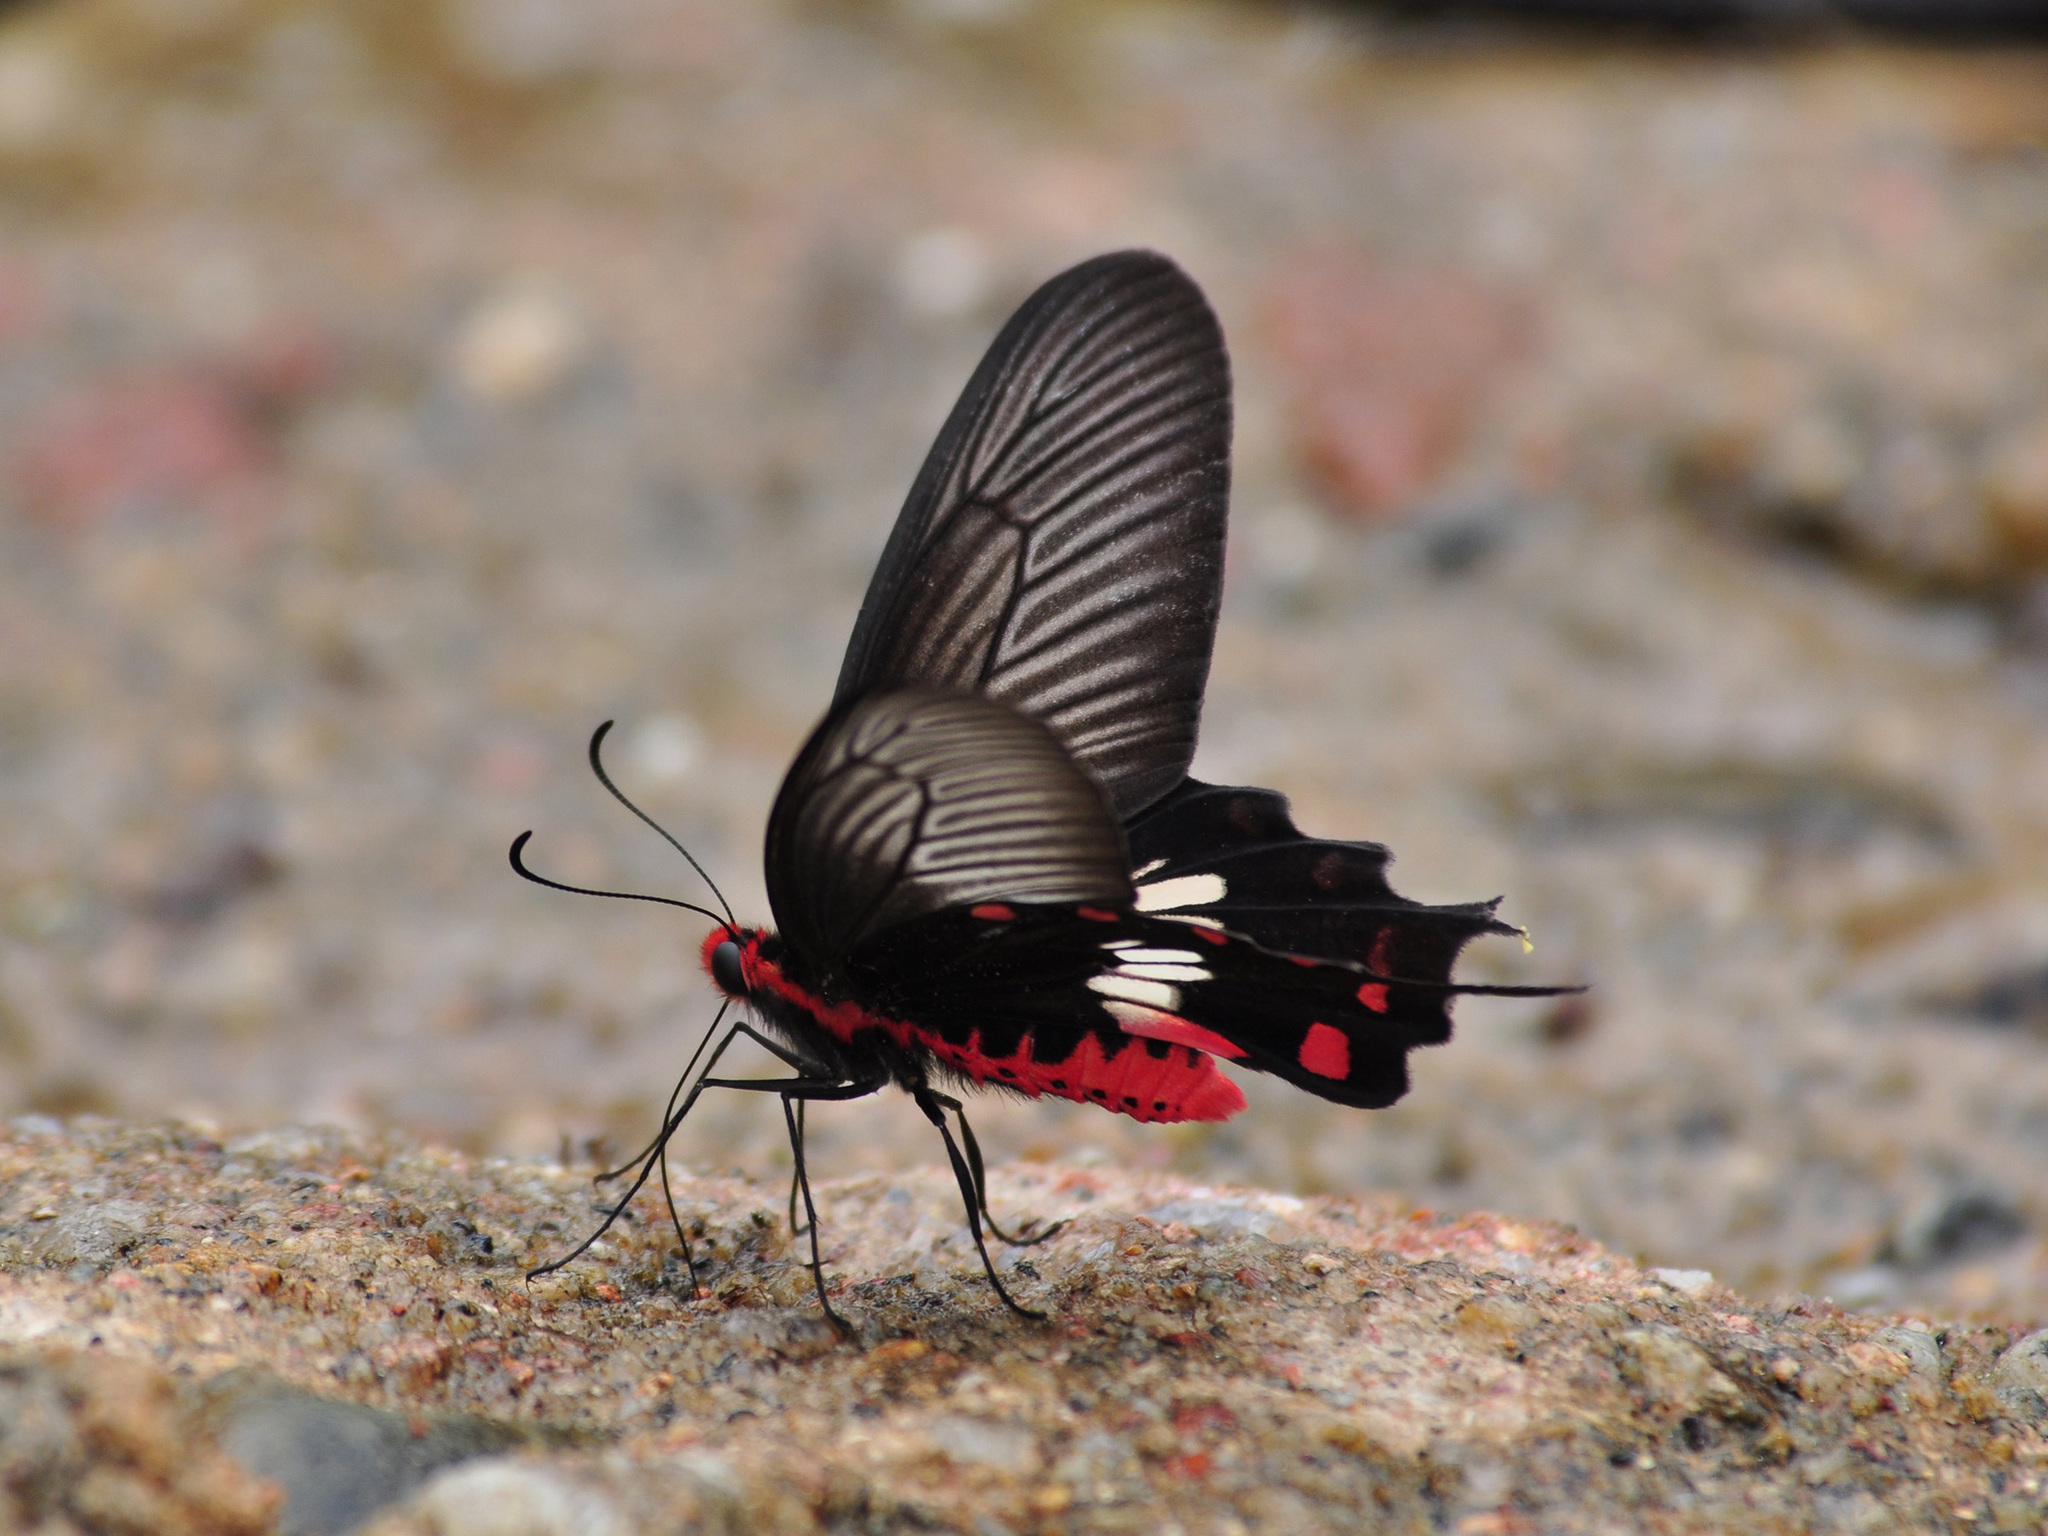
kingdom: Animalia
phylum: Arthropoda
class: Insecta
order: Lepidoptera
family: Papilionidae
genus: Pachliopta
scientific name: Pachliopta aristolochiae
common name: Common rose
